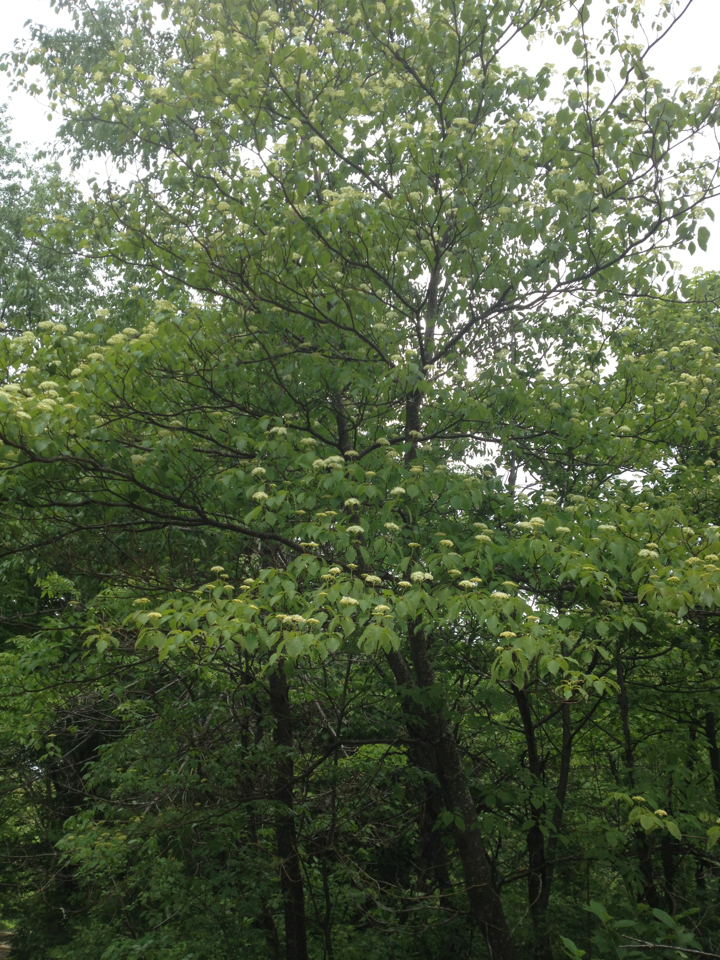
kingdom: Plantae
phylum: Tracheophyta
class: Magnoliopsida
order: Cornales
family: Cornaceae
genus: Cornus
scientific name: Cornus alternifolia
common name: Pagoda dogwood
